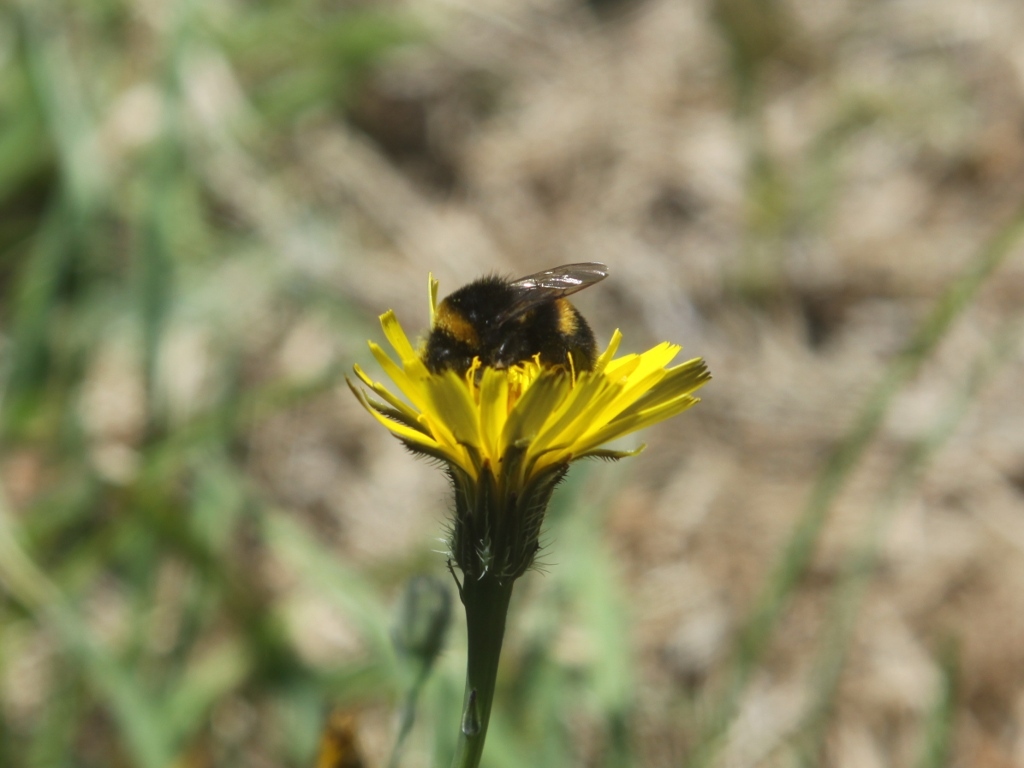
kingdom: Animalia
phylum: Arthropoda
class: Insecta
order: Hymenoptera
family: Apidae
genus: Bombus
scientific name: Bombus terrestris
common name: Buff-tailed bumblebee
